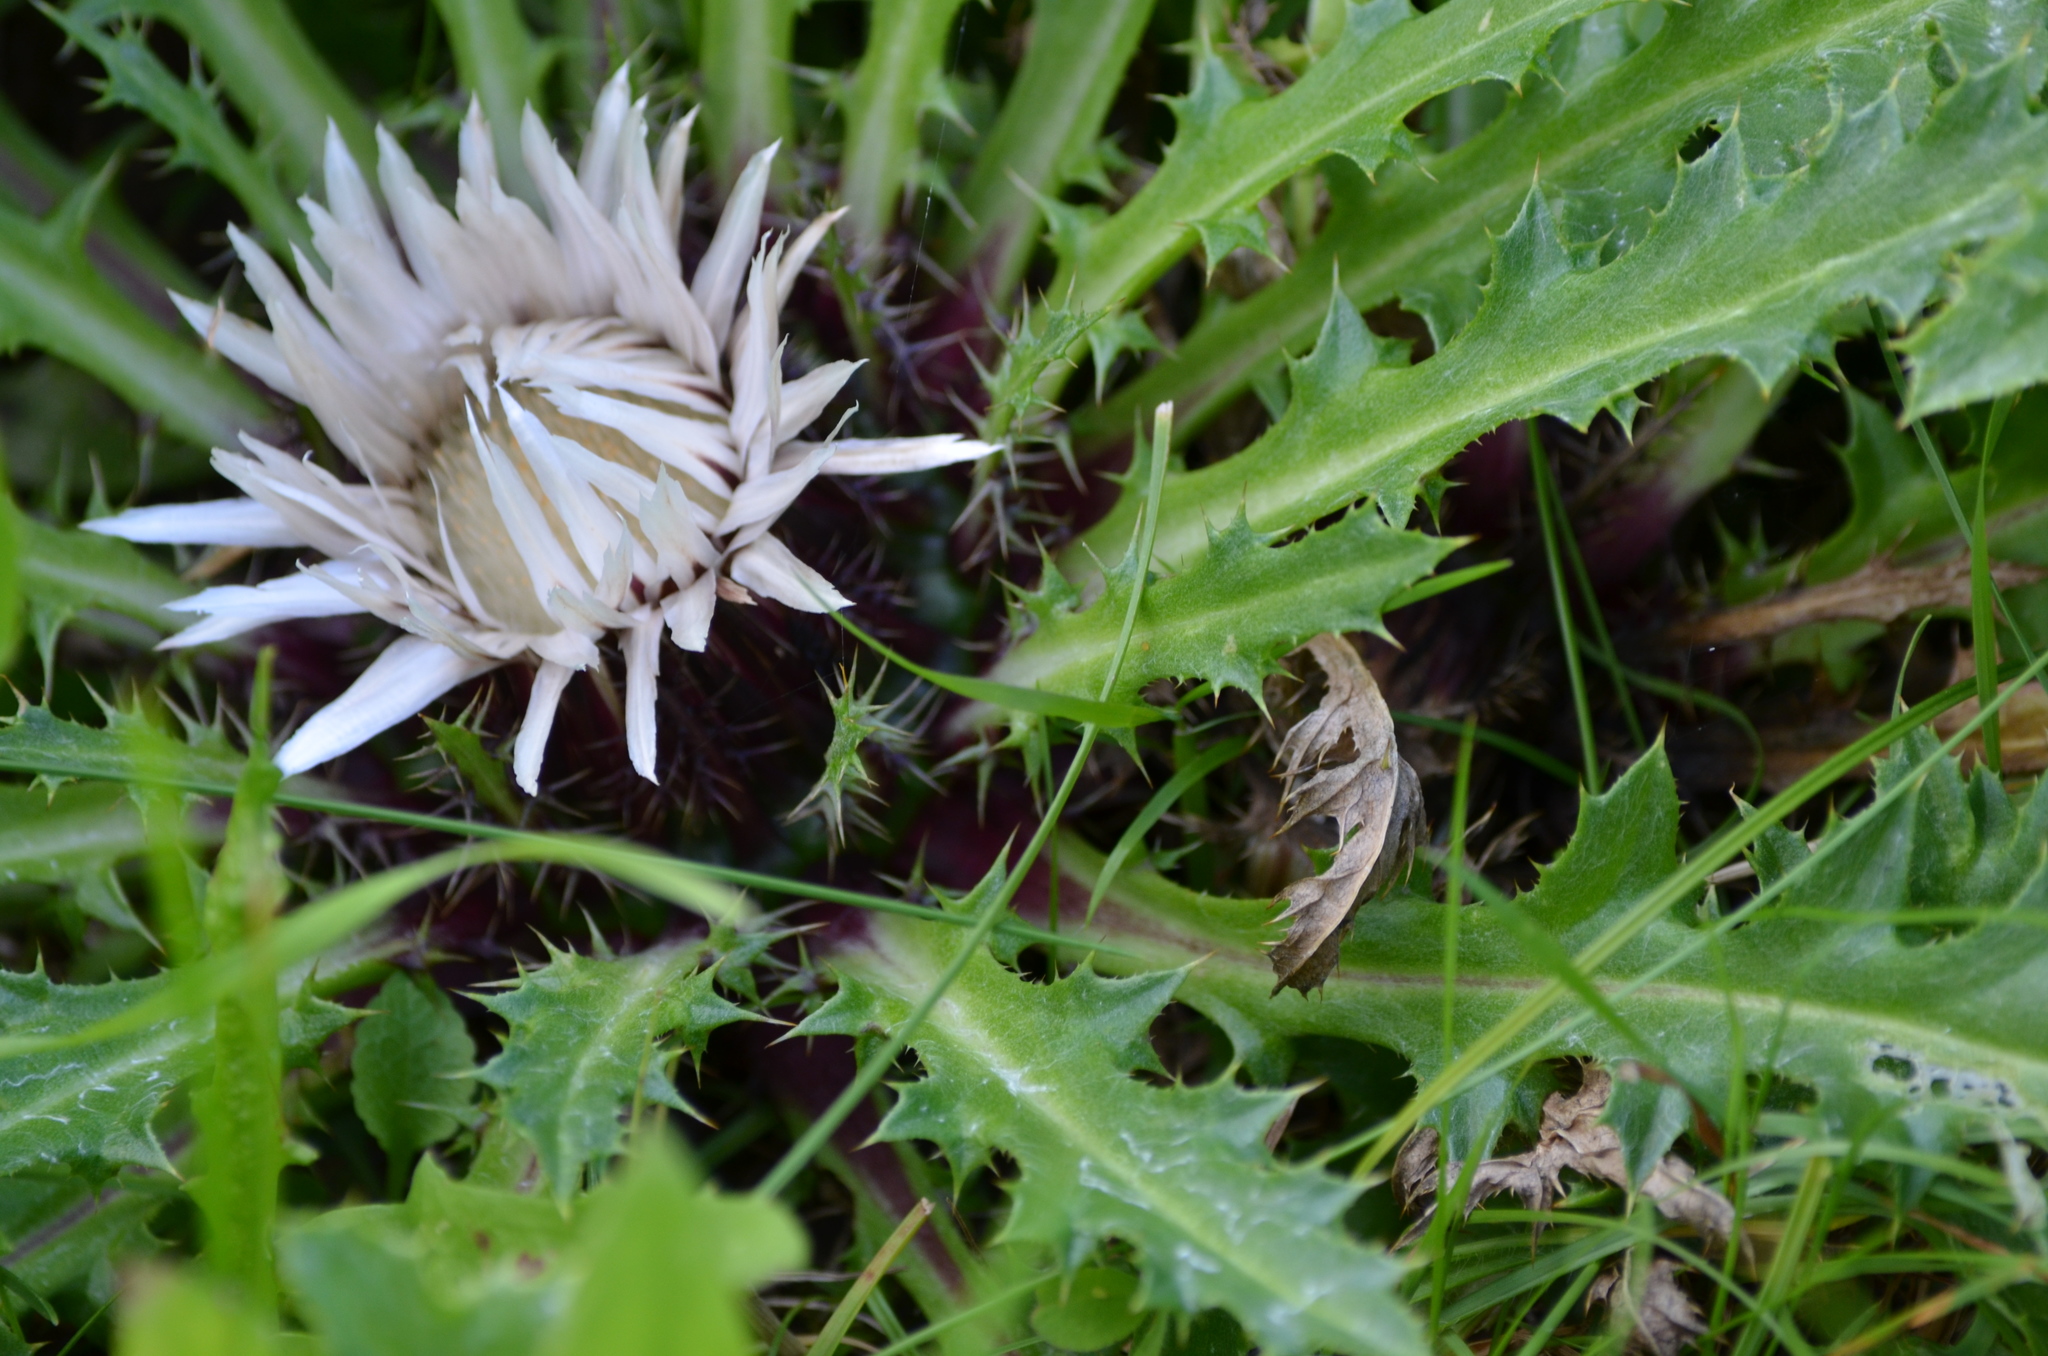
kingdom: Plantae
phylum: Tracheophyta
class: Magnoliopsida
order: Asterales
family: Asteraceae
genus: Carlina
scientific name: Carlina acaulis
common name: Stemless carline thistle
